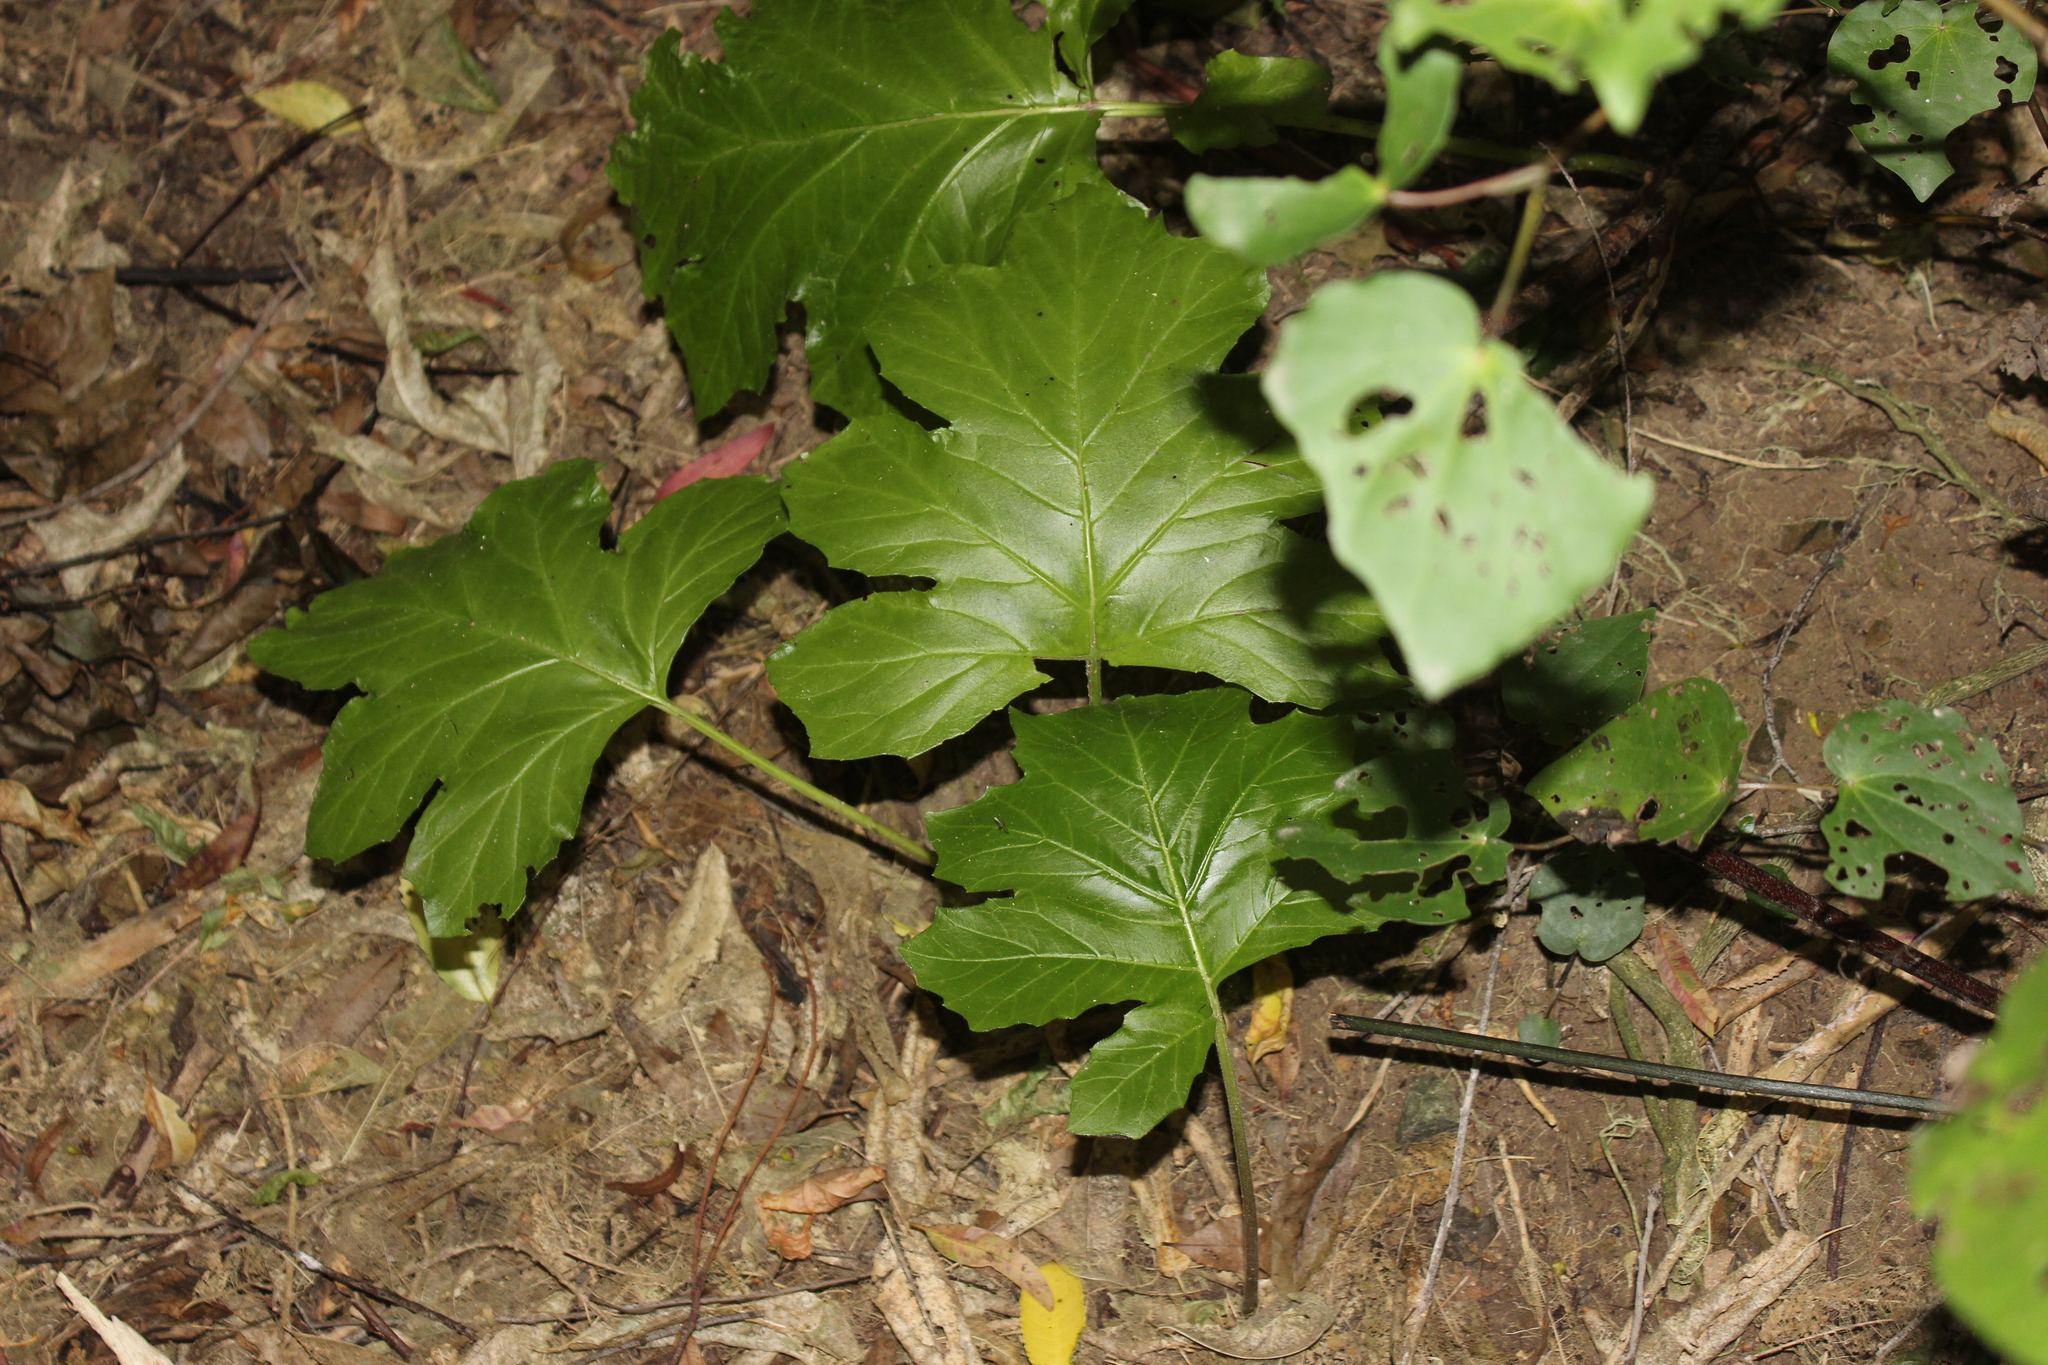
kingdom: Plantae
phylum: Tracheophyta
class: Magnoliopsida
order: Lamiales
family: Acanthaceae
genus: Acanthus
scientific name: Acanthus mollis
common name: Bear's-breech
